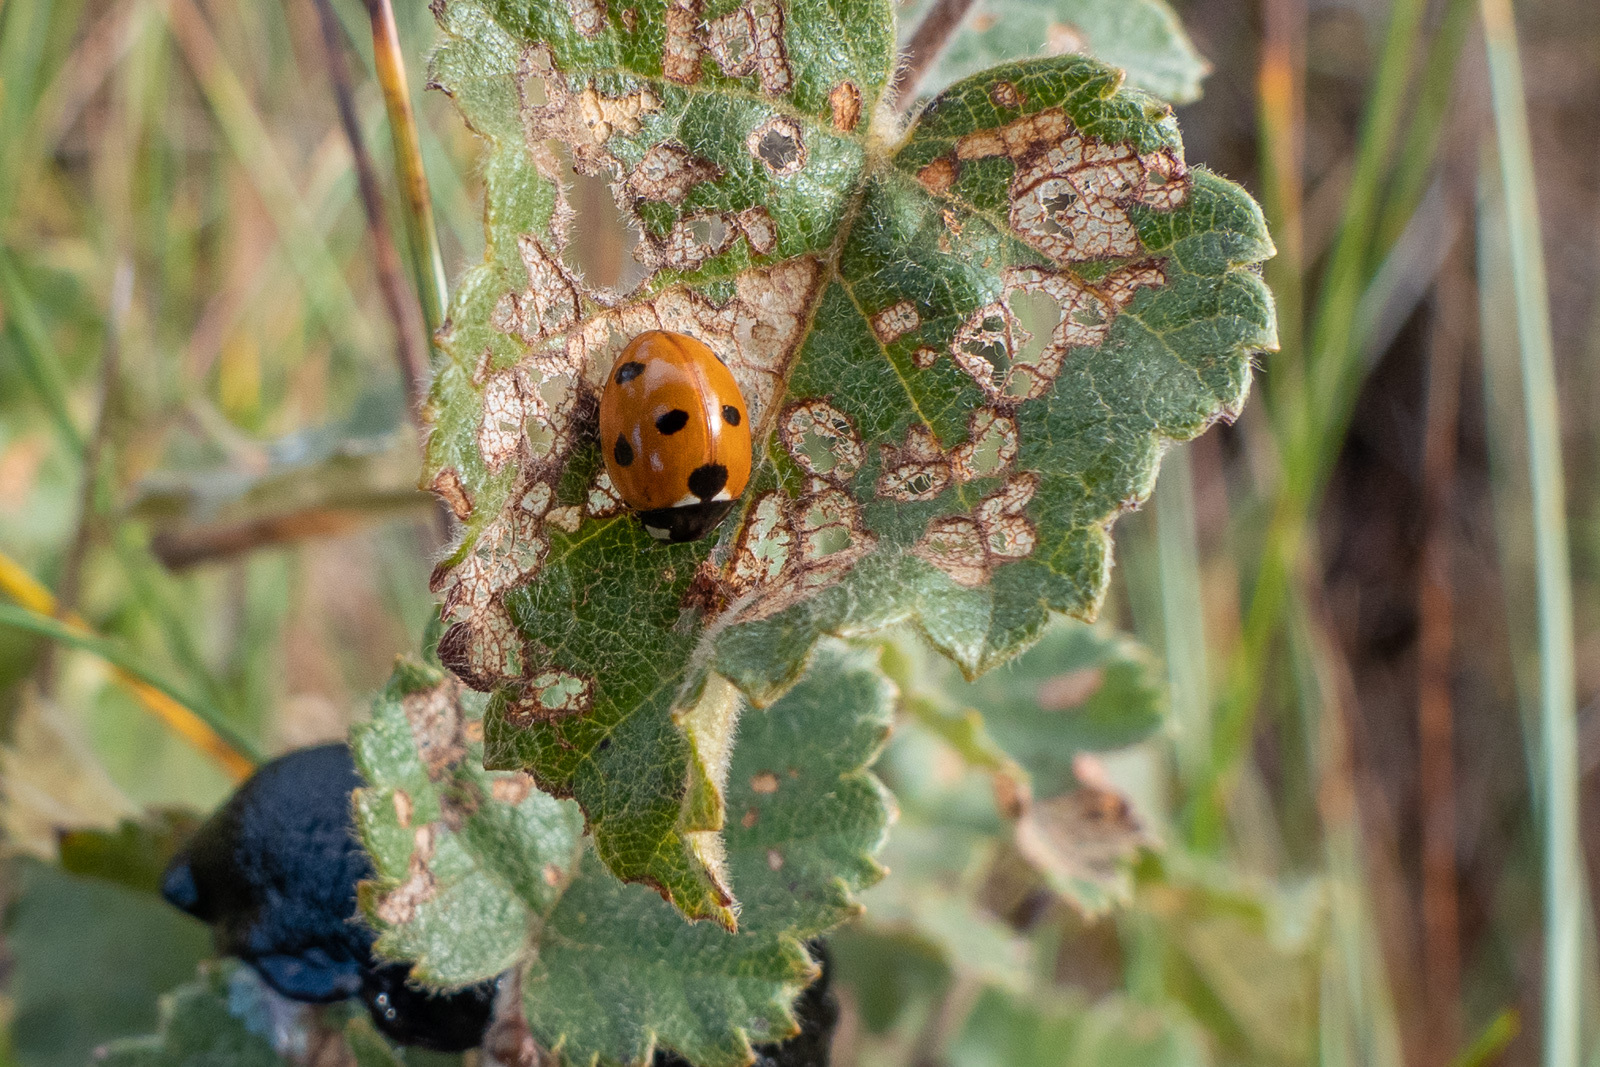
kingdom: Animalia
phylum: Arthropoda
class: Insecta
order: Coleoptera
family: Coccinellidae
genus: Coccinella
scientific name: Coccinella septempunctata
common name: Sevenspotted lady beetle
